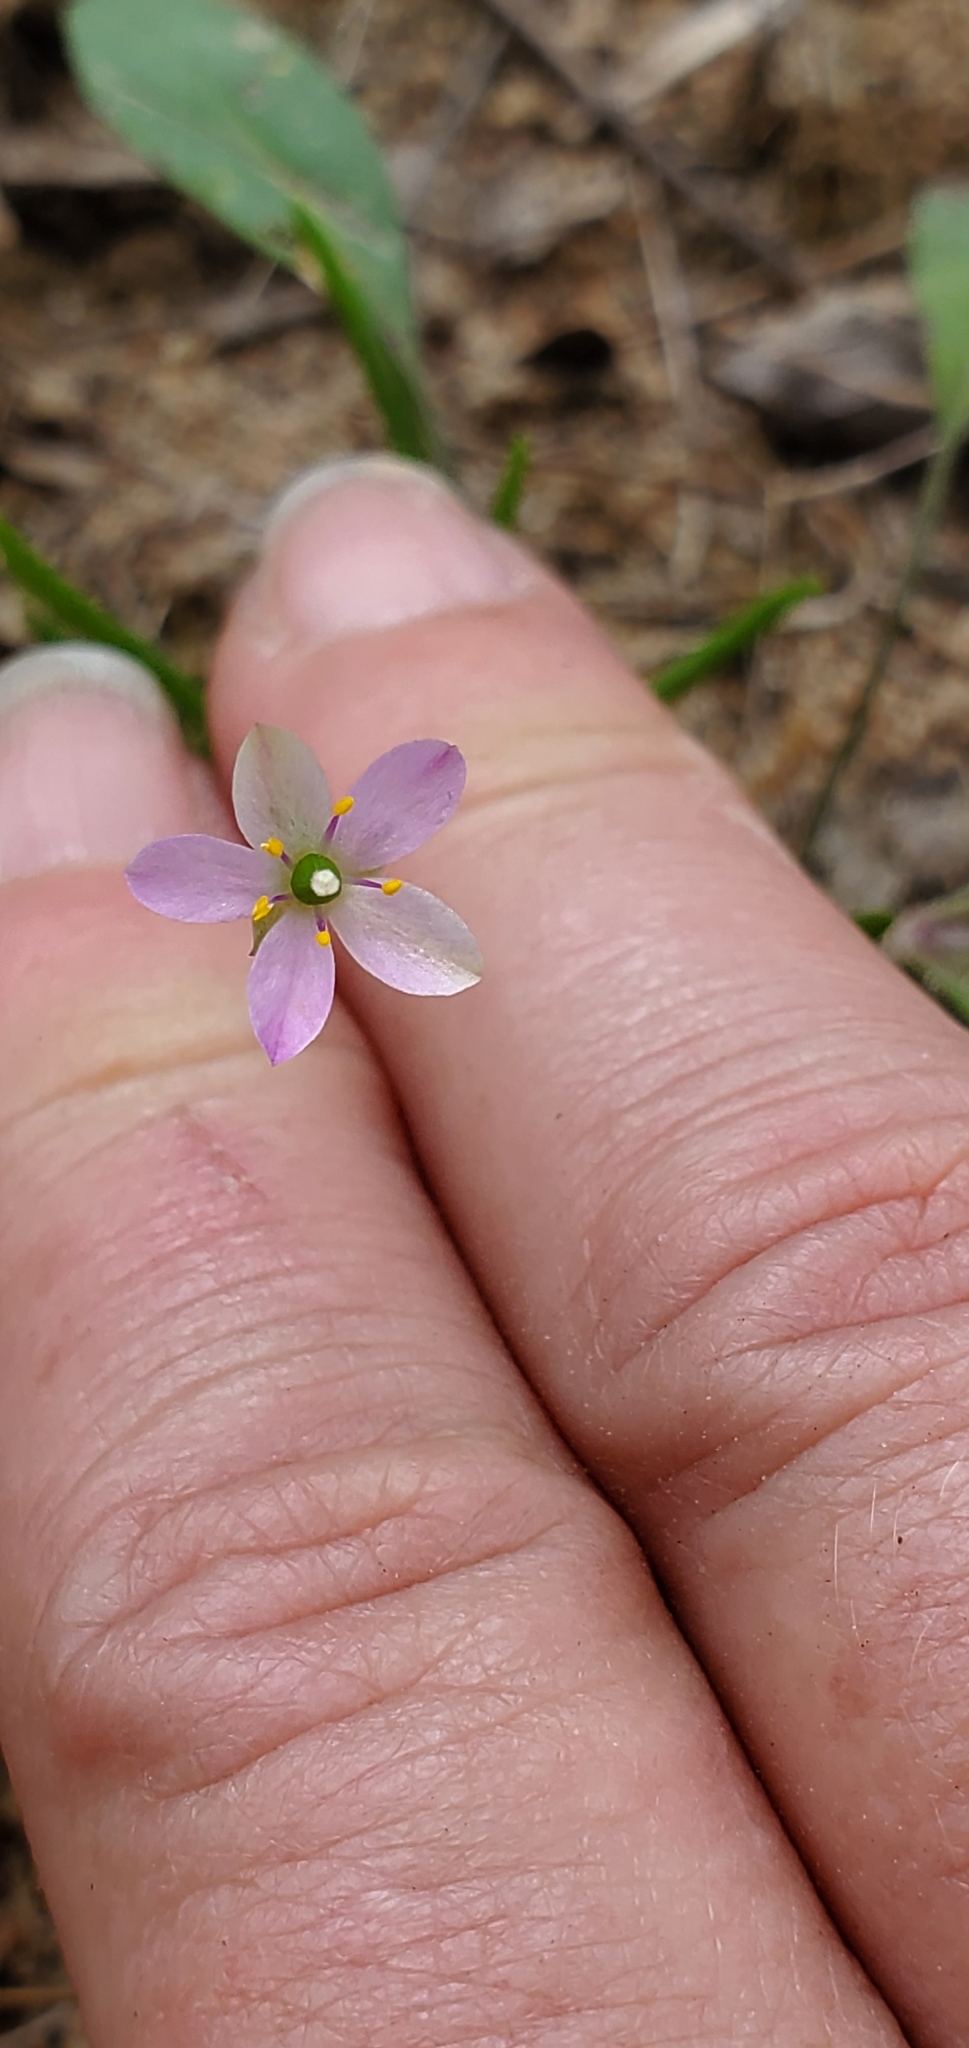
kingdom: Plantae
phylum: Tracheophyta
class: Magnoliopsida
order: Caryophyllales
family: Montiaceae
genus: Phemeranthus
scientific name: Phemeranthus parviflorus
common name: Sunbright
